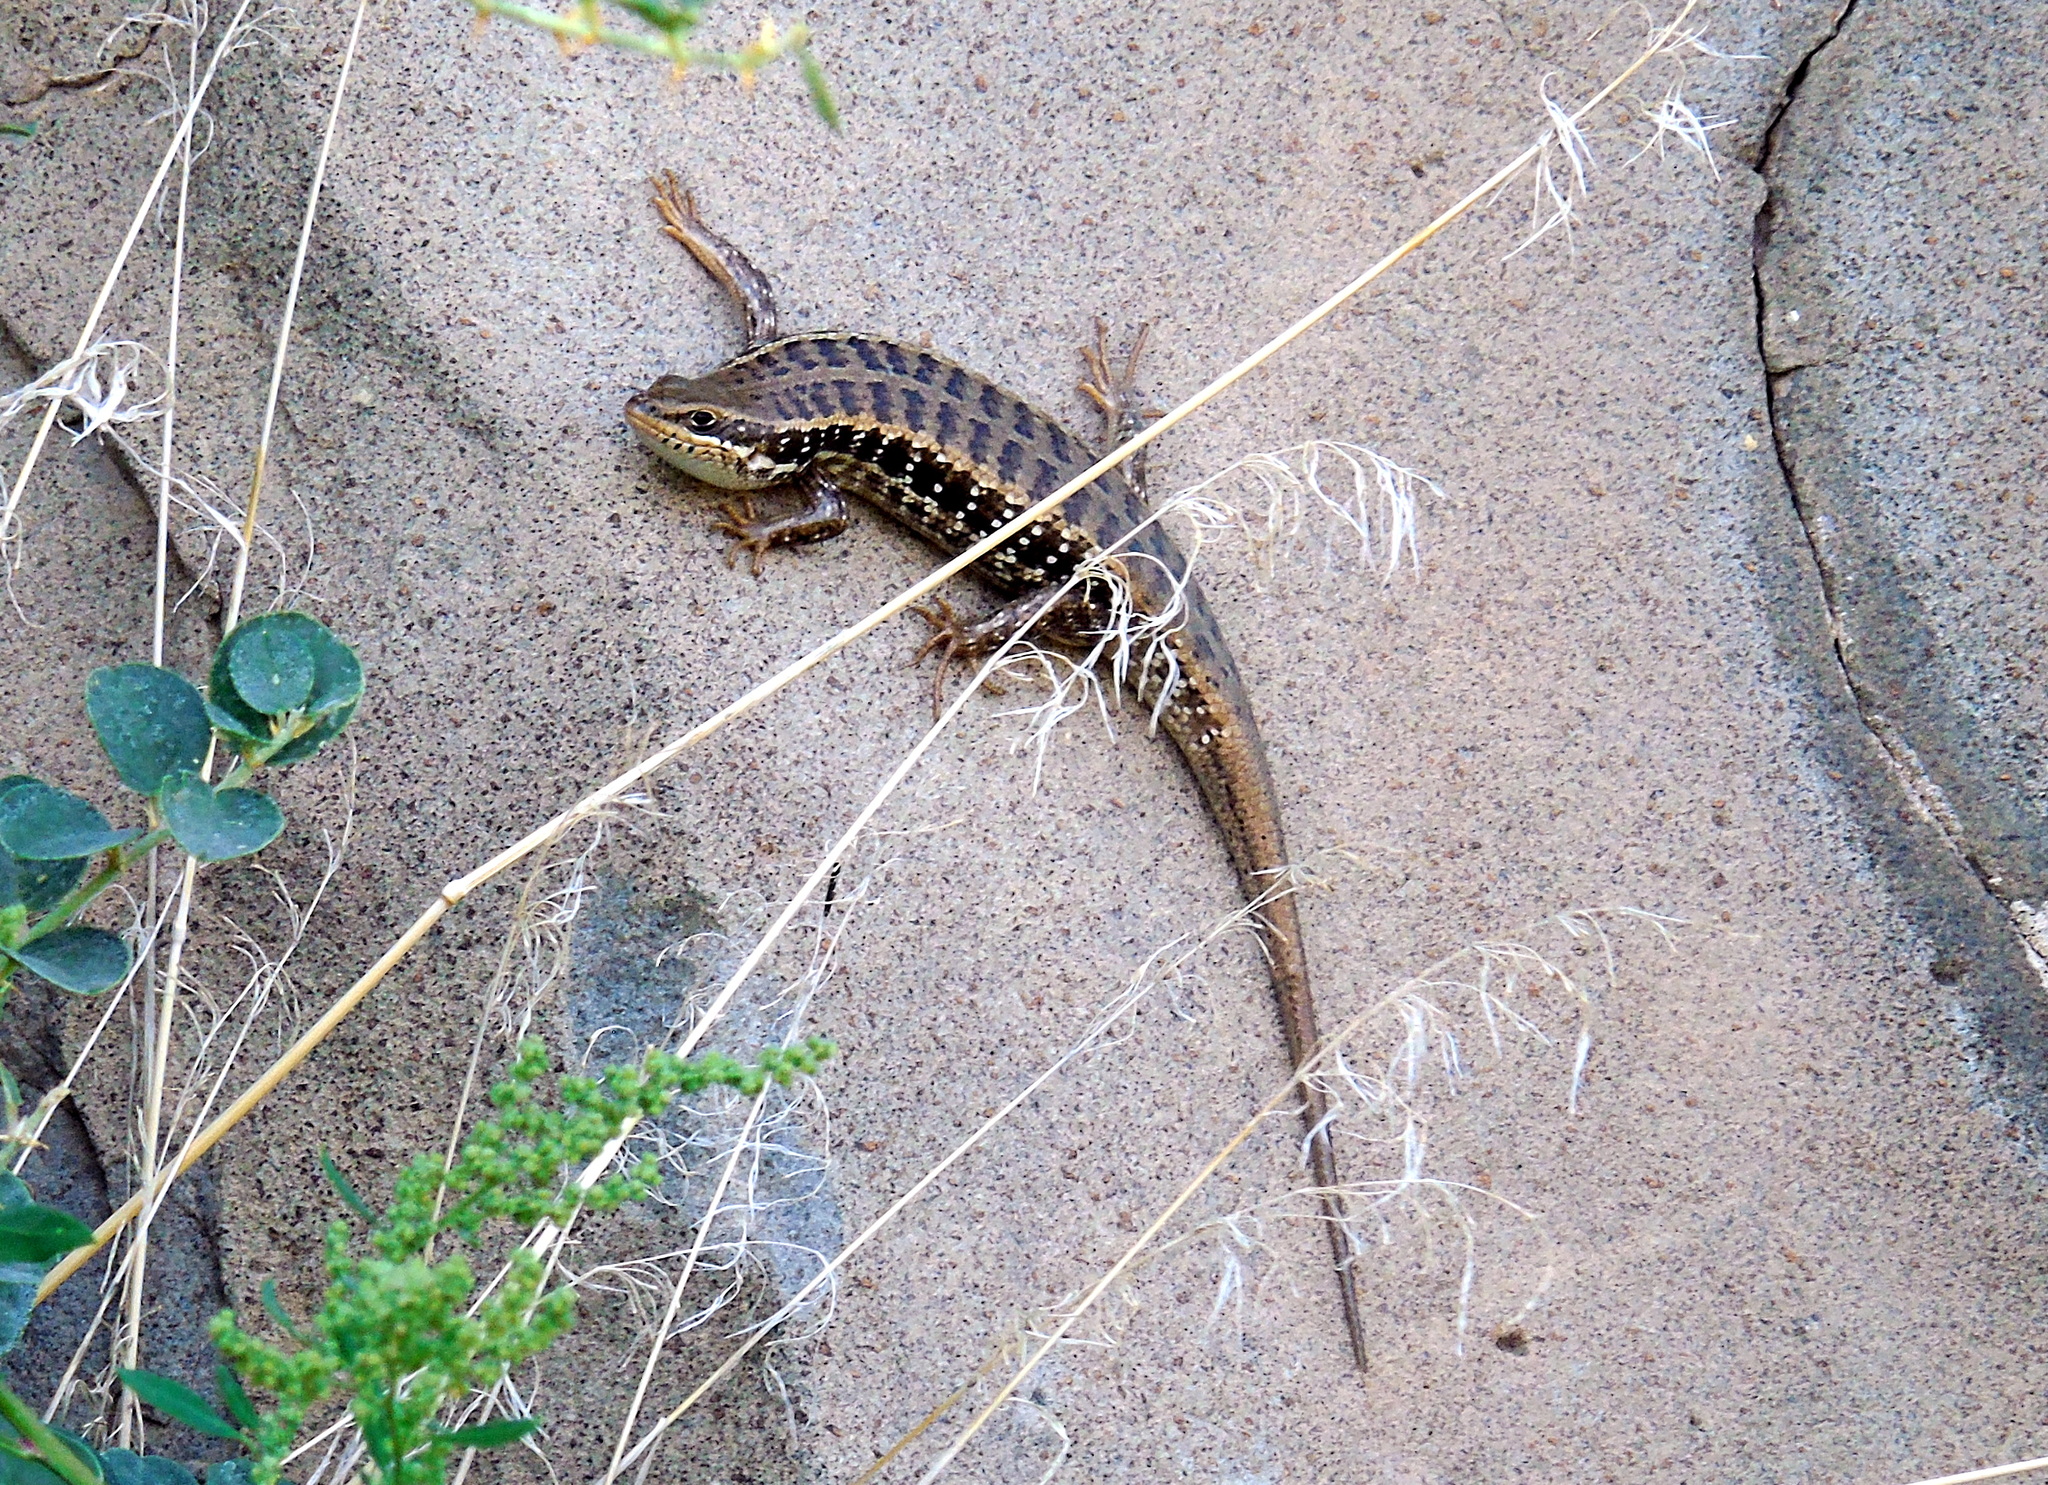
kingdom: Animalia
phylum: Chordata
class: Squamata
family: Scincidae
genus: Heremites
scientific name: Heremites auratus
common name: Golden grass mabuya
